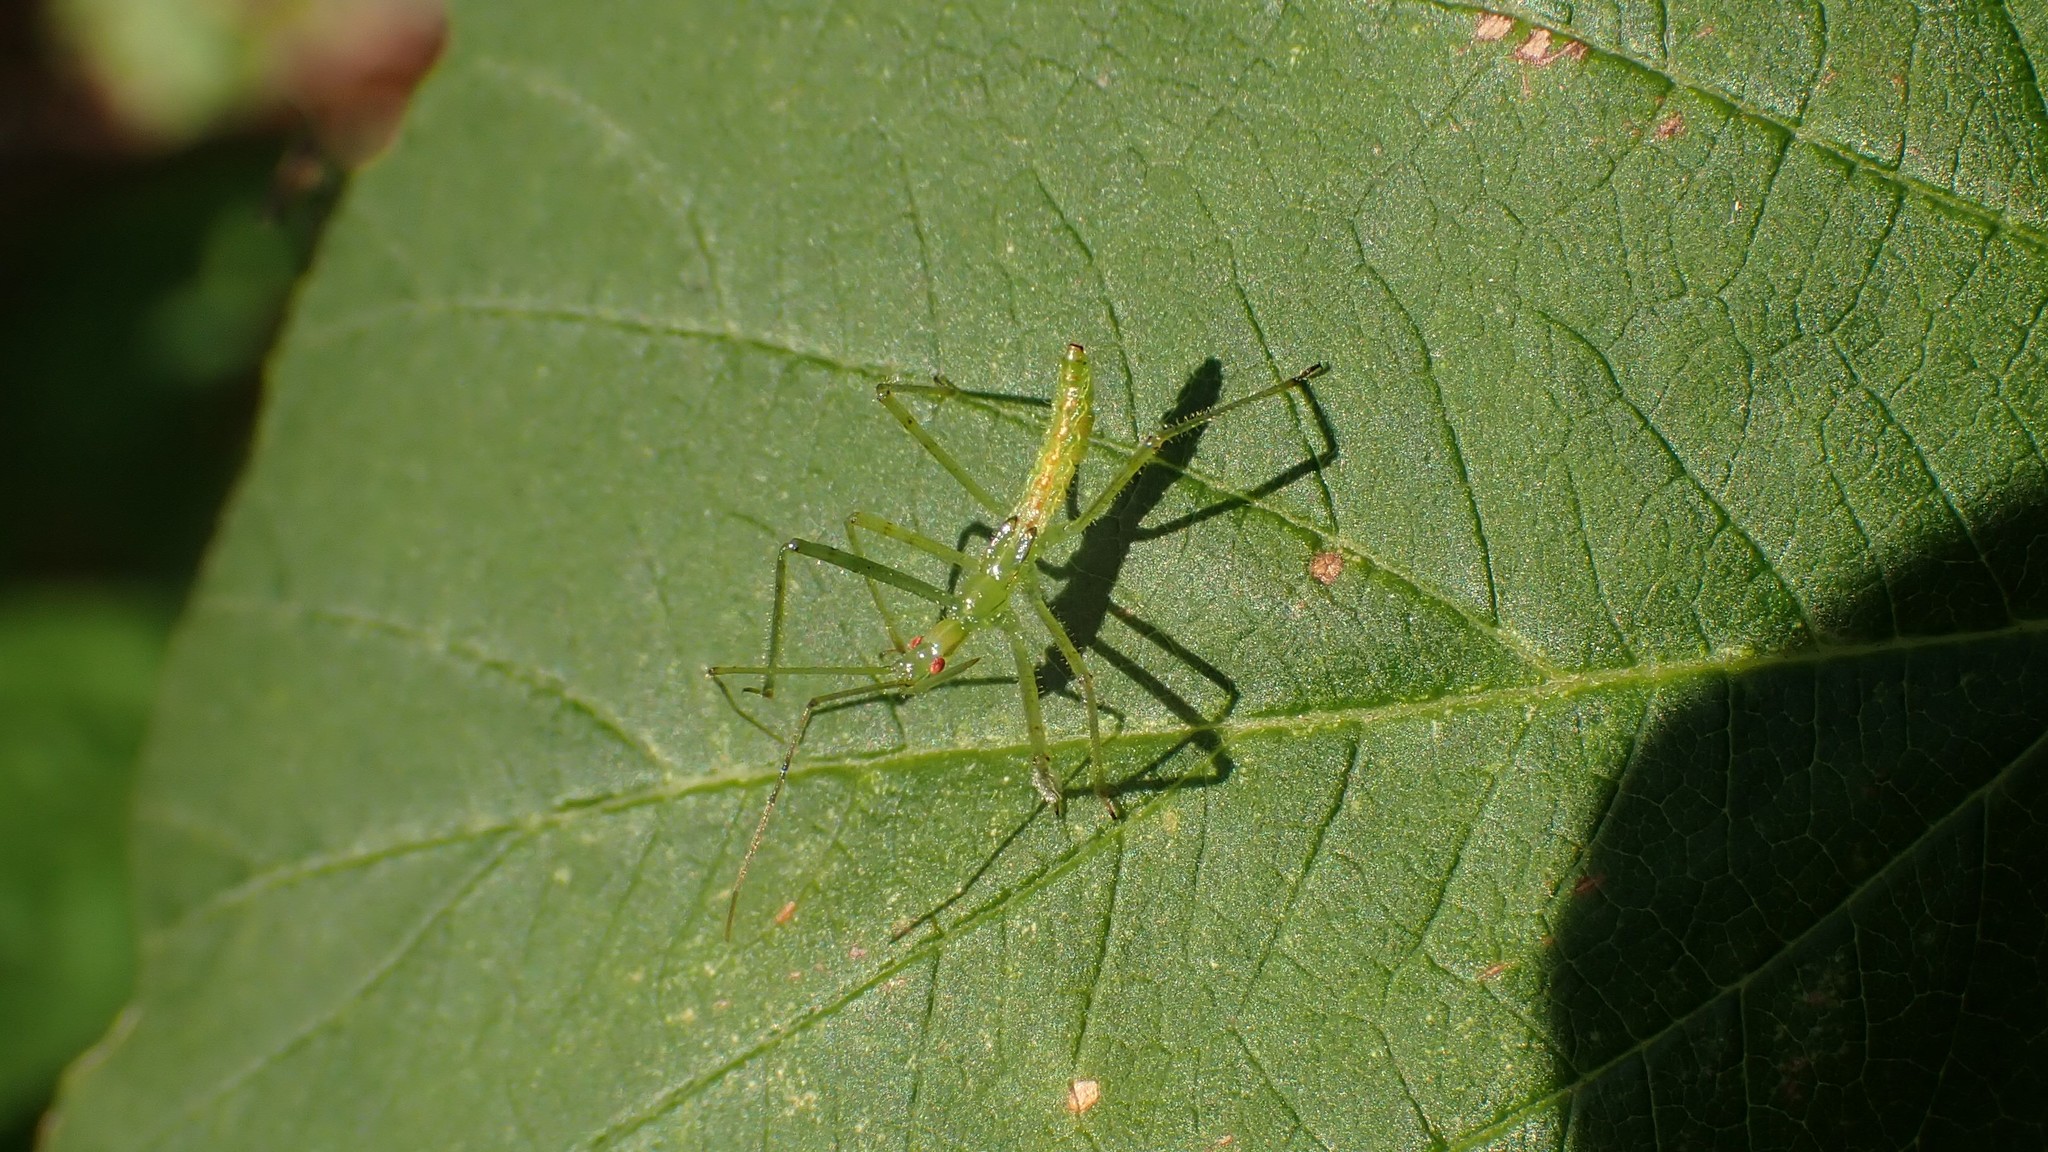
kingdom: Animalia
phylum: Arthropoda
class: Insecta
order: Hemiptera
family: Reduviidae
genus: Zelus
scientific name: Zelus luridus
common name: Pale green assassin bug
